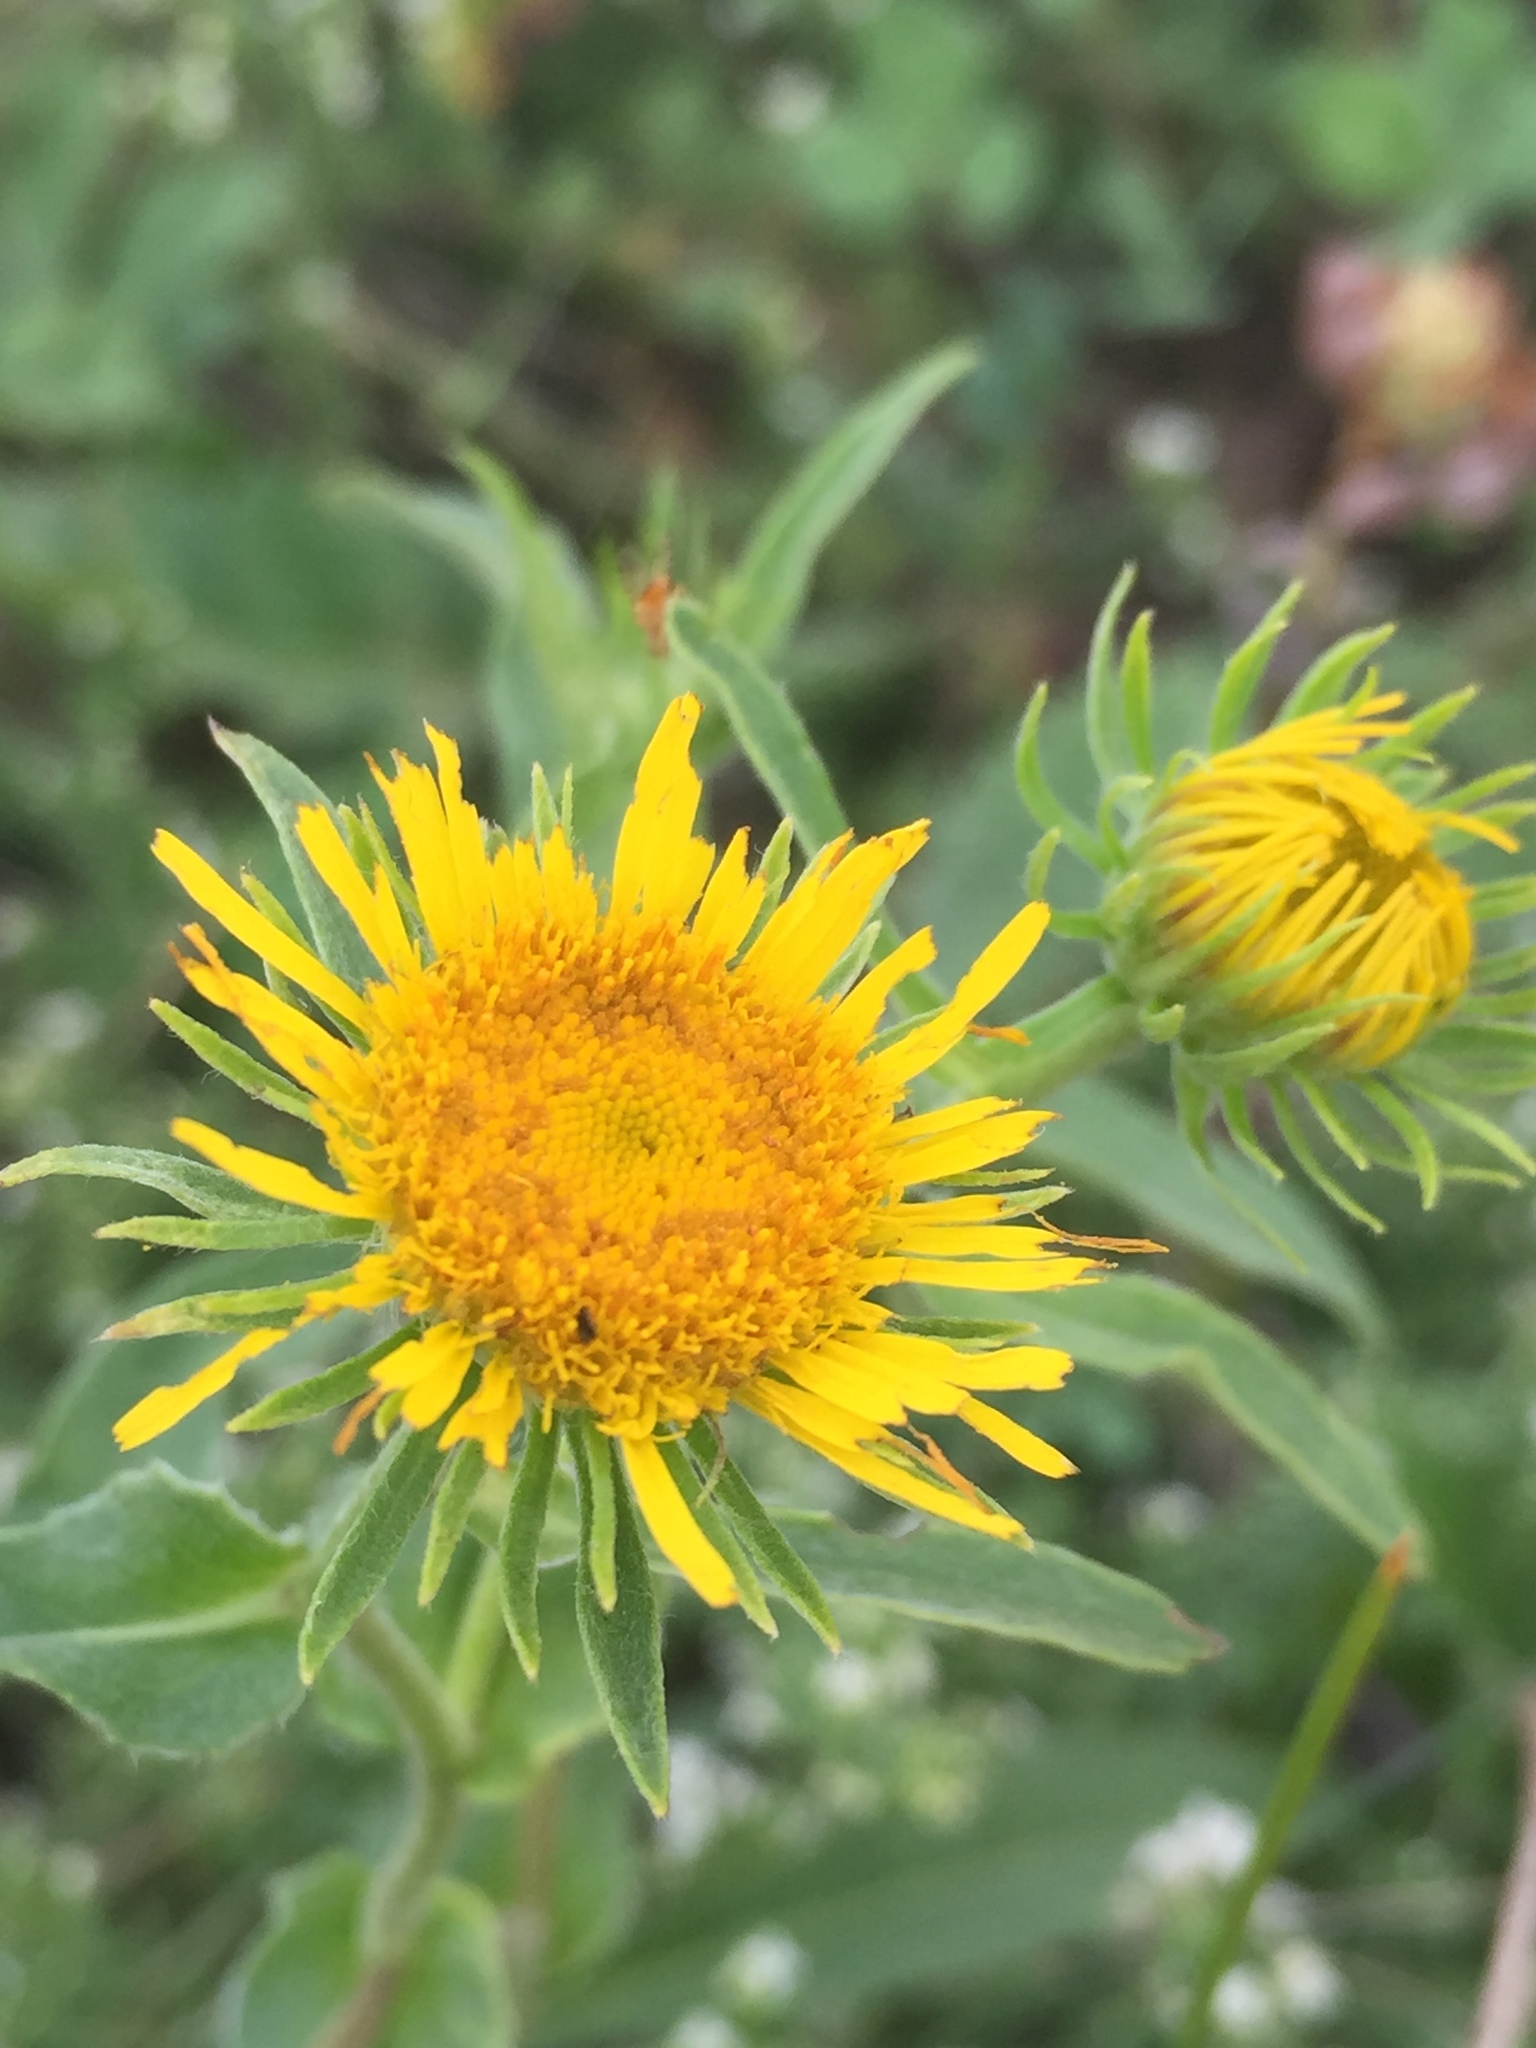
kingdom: Plantae
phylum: Tracheophyta
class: Magnoliopsida
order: Asterales
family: Asteraceae
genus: Pentanema
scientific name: Pentanema britannicum
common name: British elecampane
